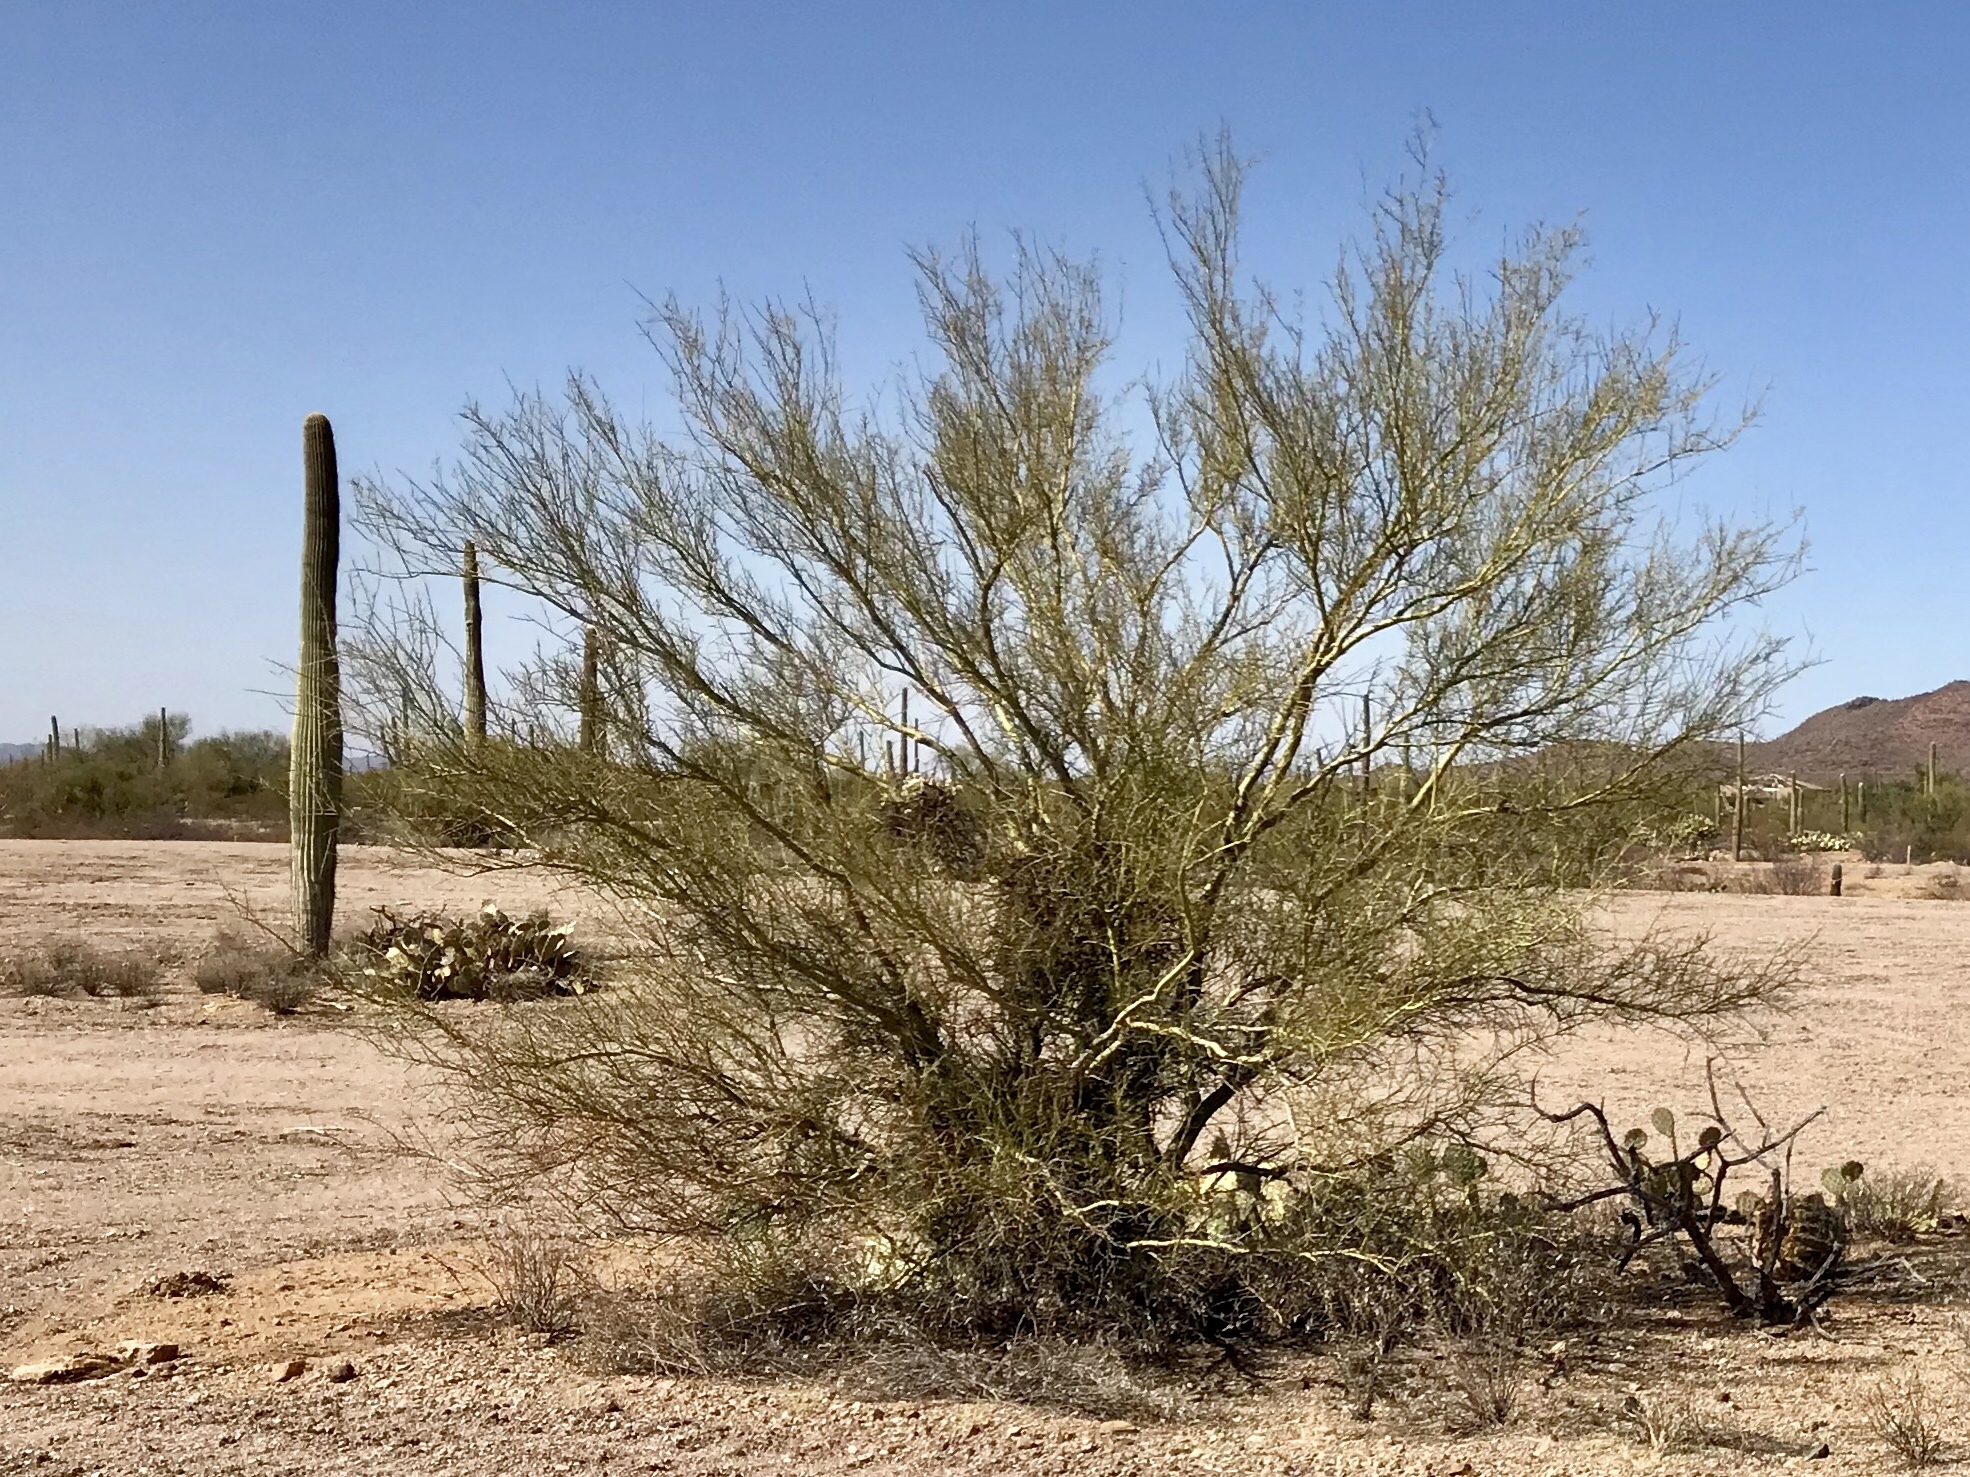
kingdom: Plantae
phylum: Tracheophyta
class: Magnoliopsida
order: Fabales
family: Fabaceae
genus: Parkinsonia
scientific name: Parkinsonia microphylla
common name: Yellow paloverde
